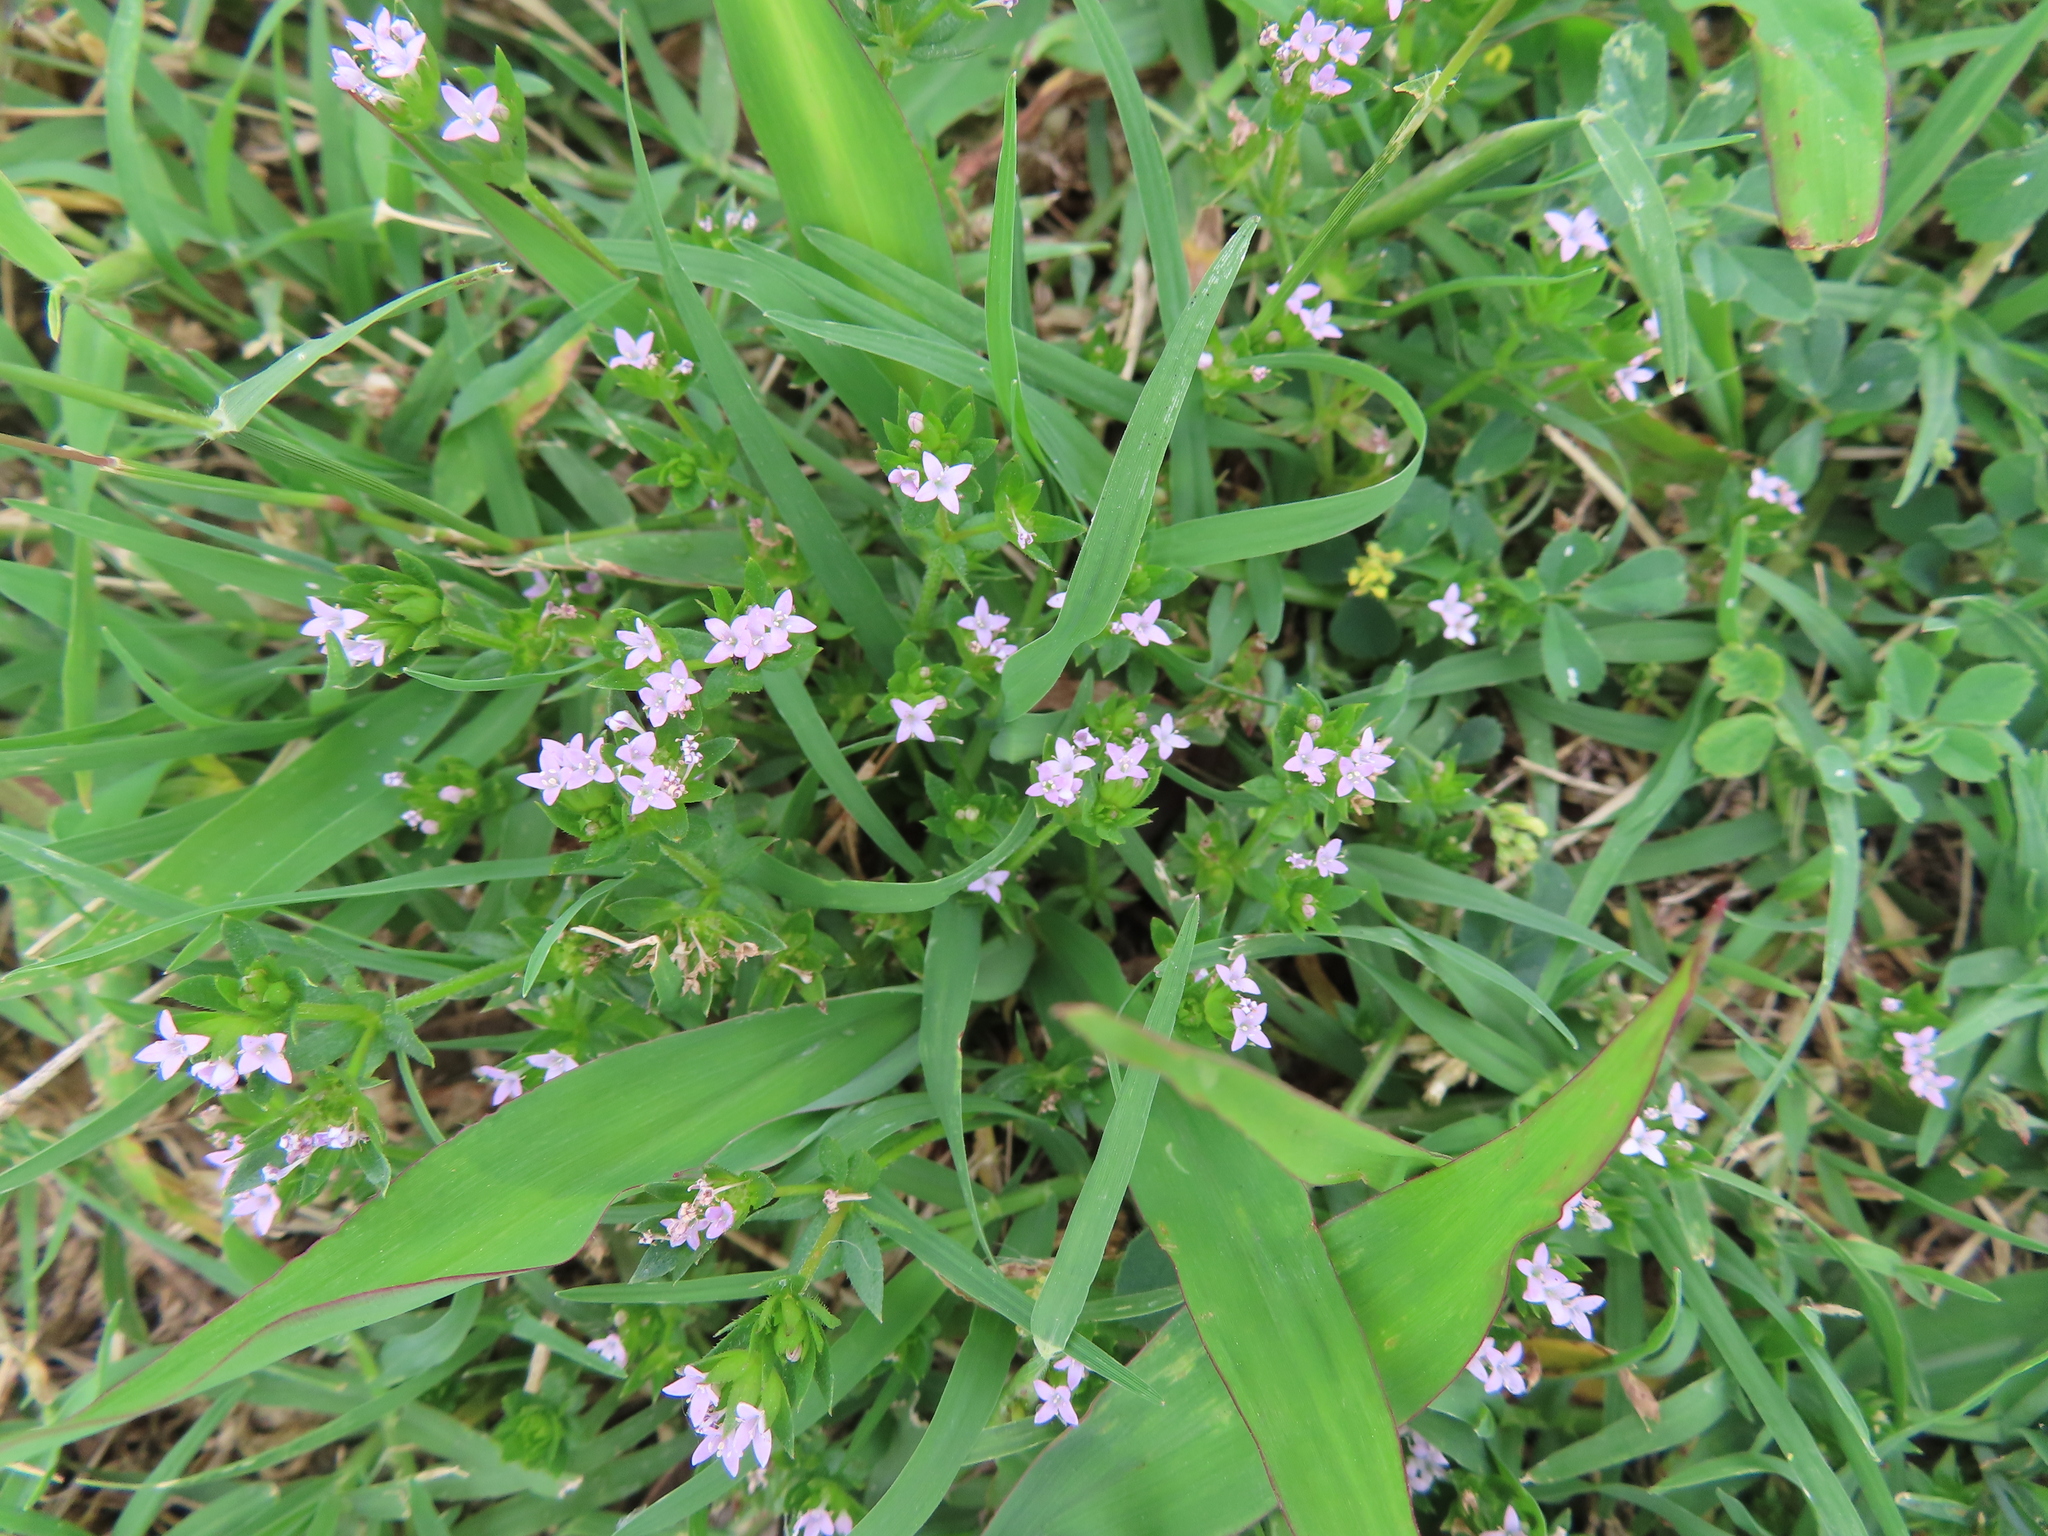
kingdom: Plantae
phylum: Tracheophyta
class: Magnoliopsida
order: Gentianales
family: Rubiaceae
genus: Sherardia
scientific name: Sherardia arvensis
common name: Field madder
